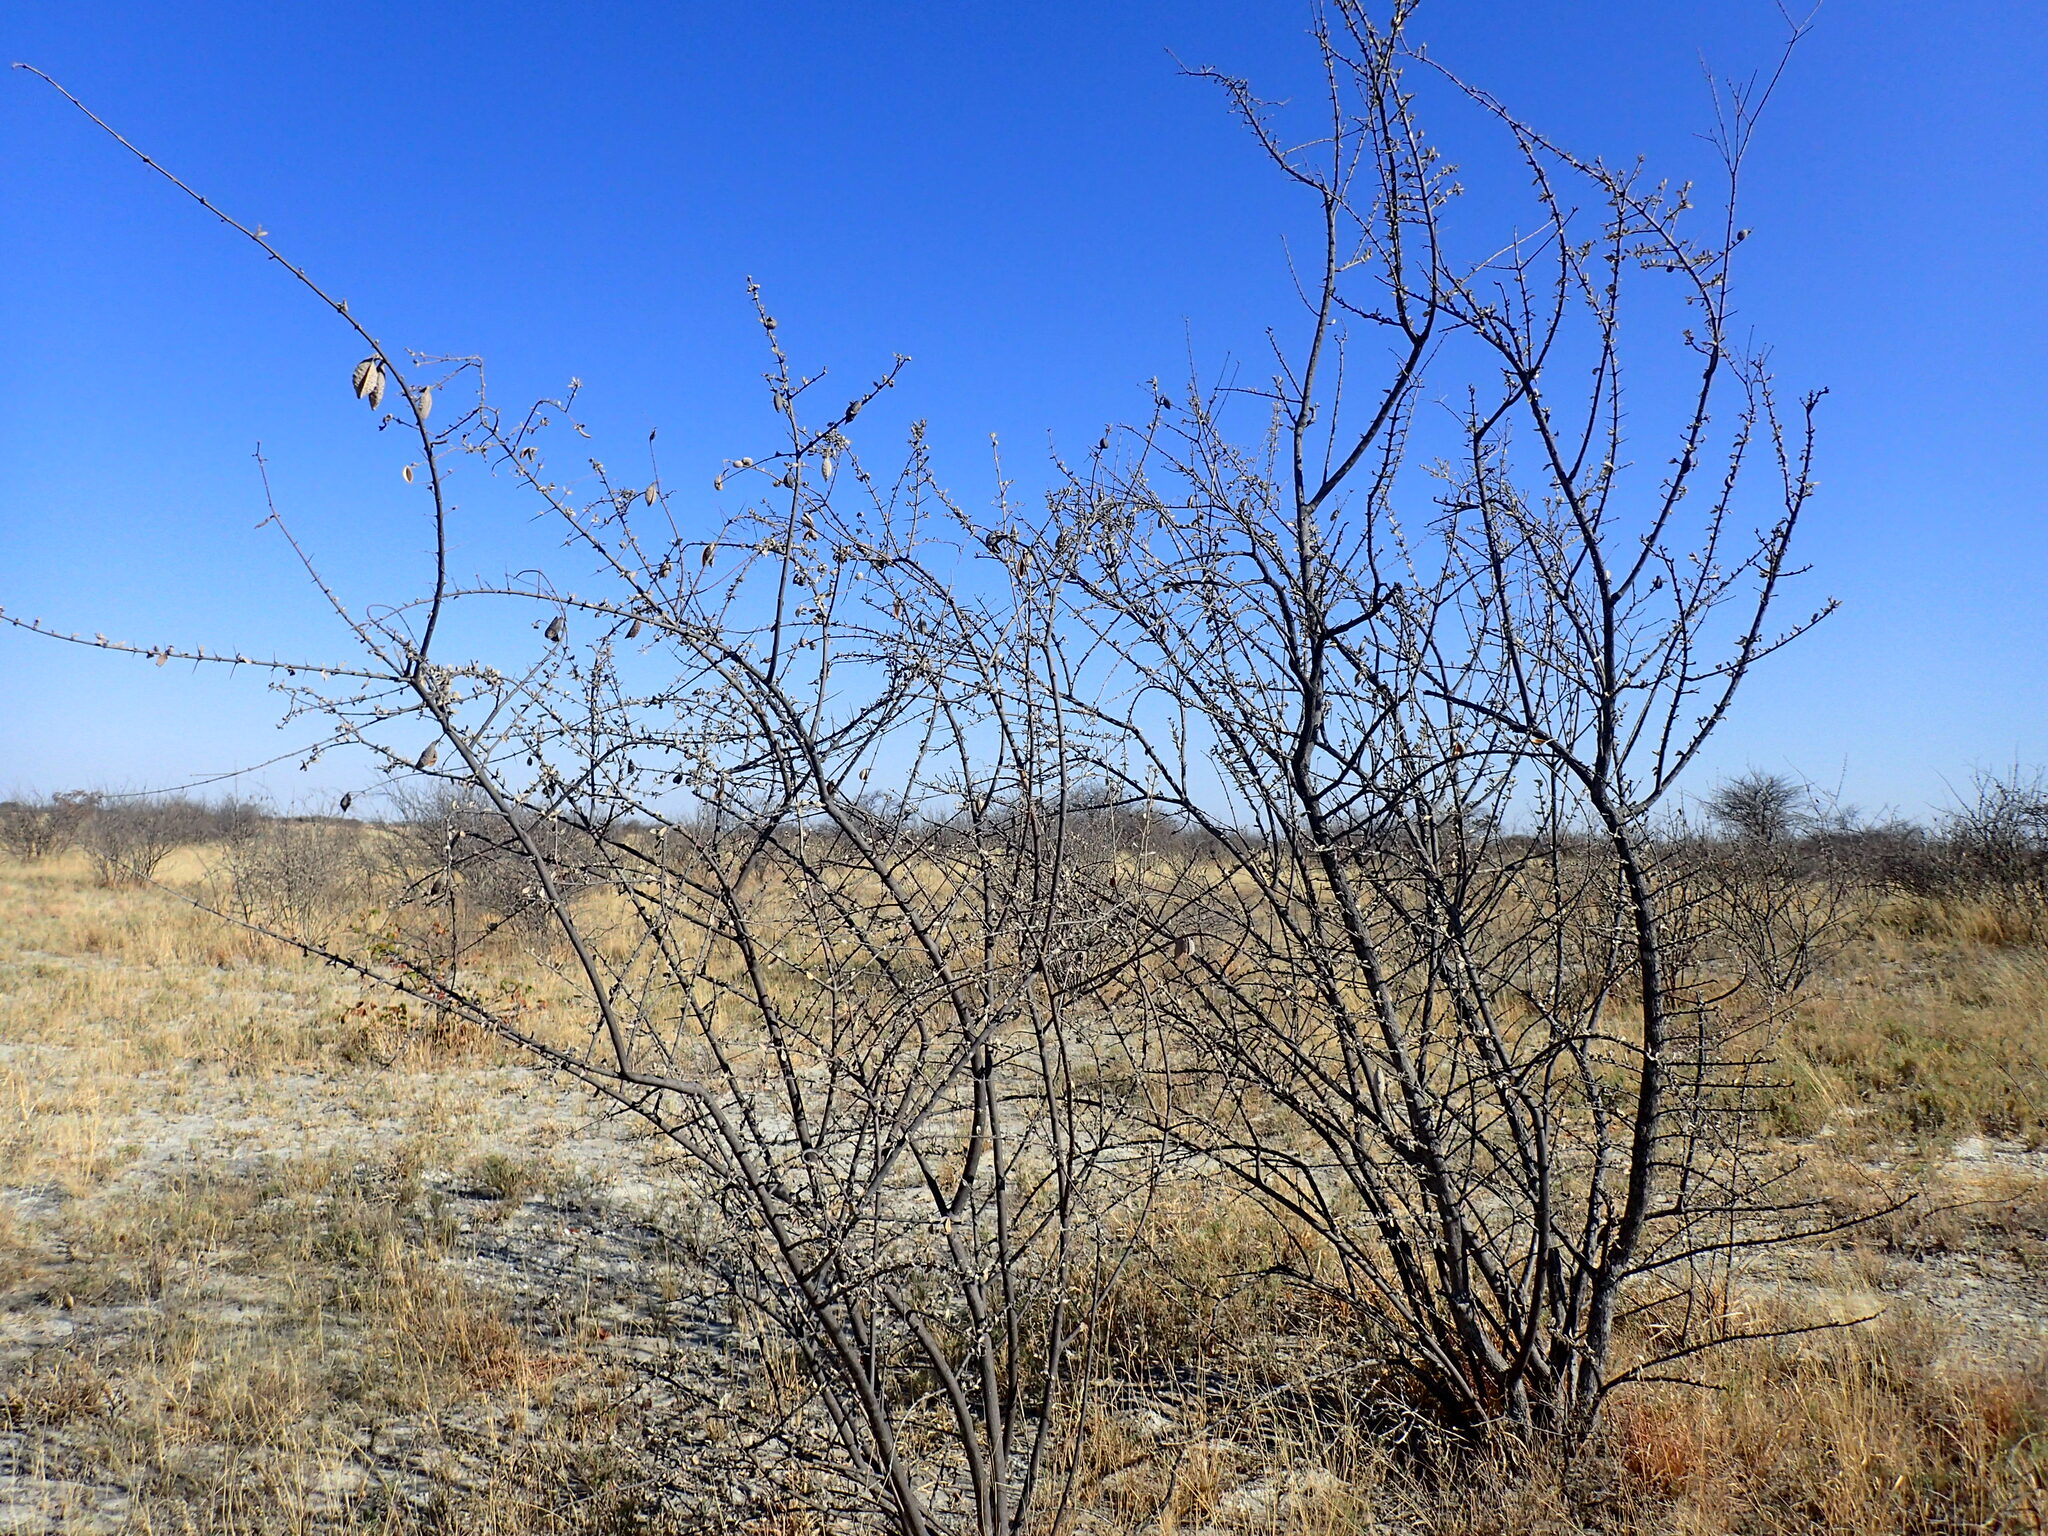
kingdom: Plantae
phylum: Tracheophyta
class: Magnoliopsida
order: Lamiales
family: Bignoniaceae
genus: Catophractes
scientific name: Catophractes alexandri
